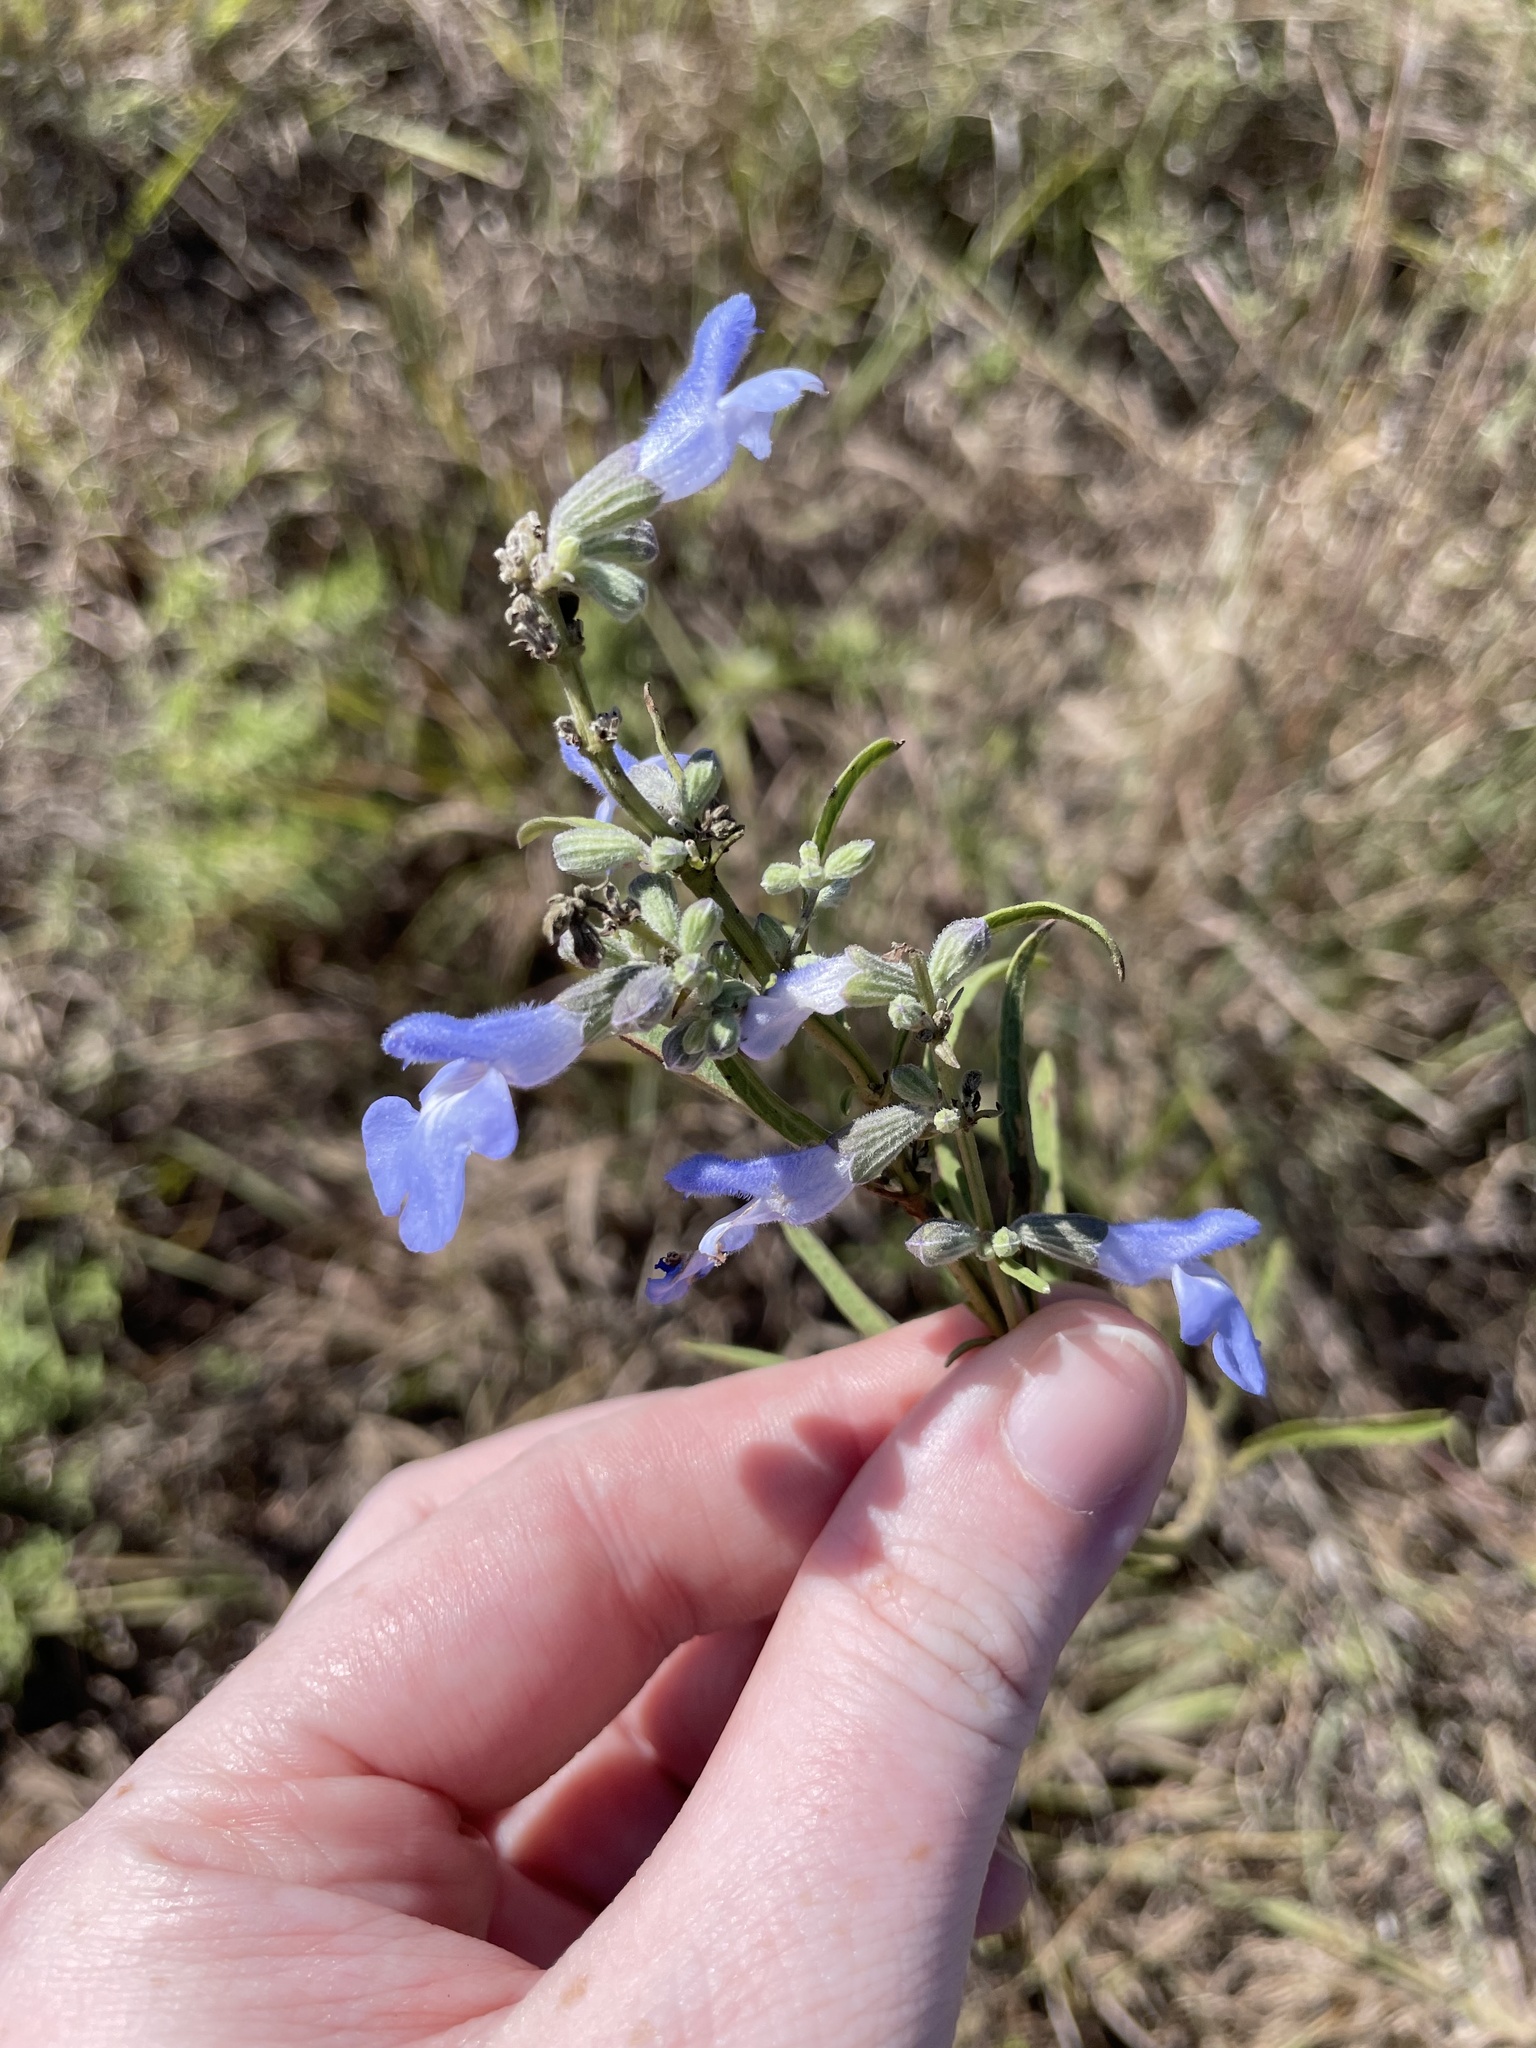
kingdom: Plantae
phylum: Tracheophyta
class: Magnoliopsida
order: Lamiales
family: Lamiaceae
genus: Salvia
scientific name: Salvia azurea
